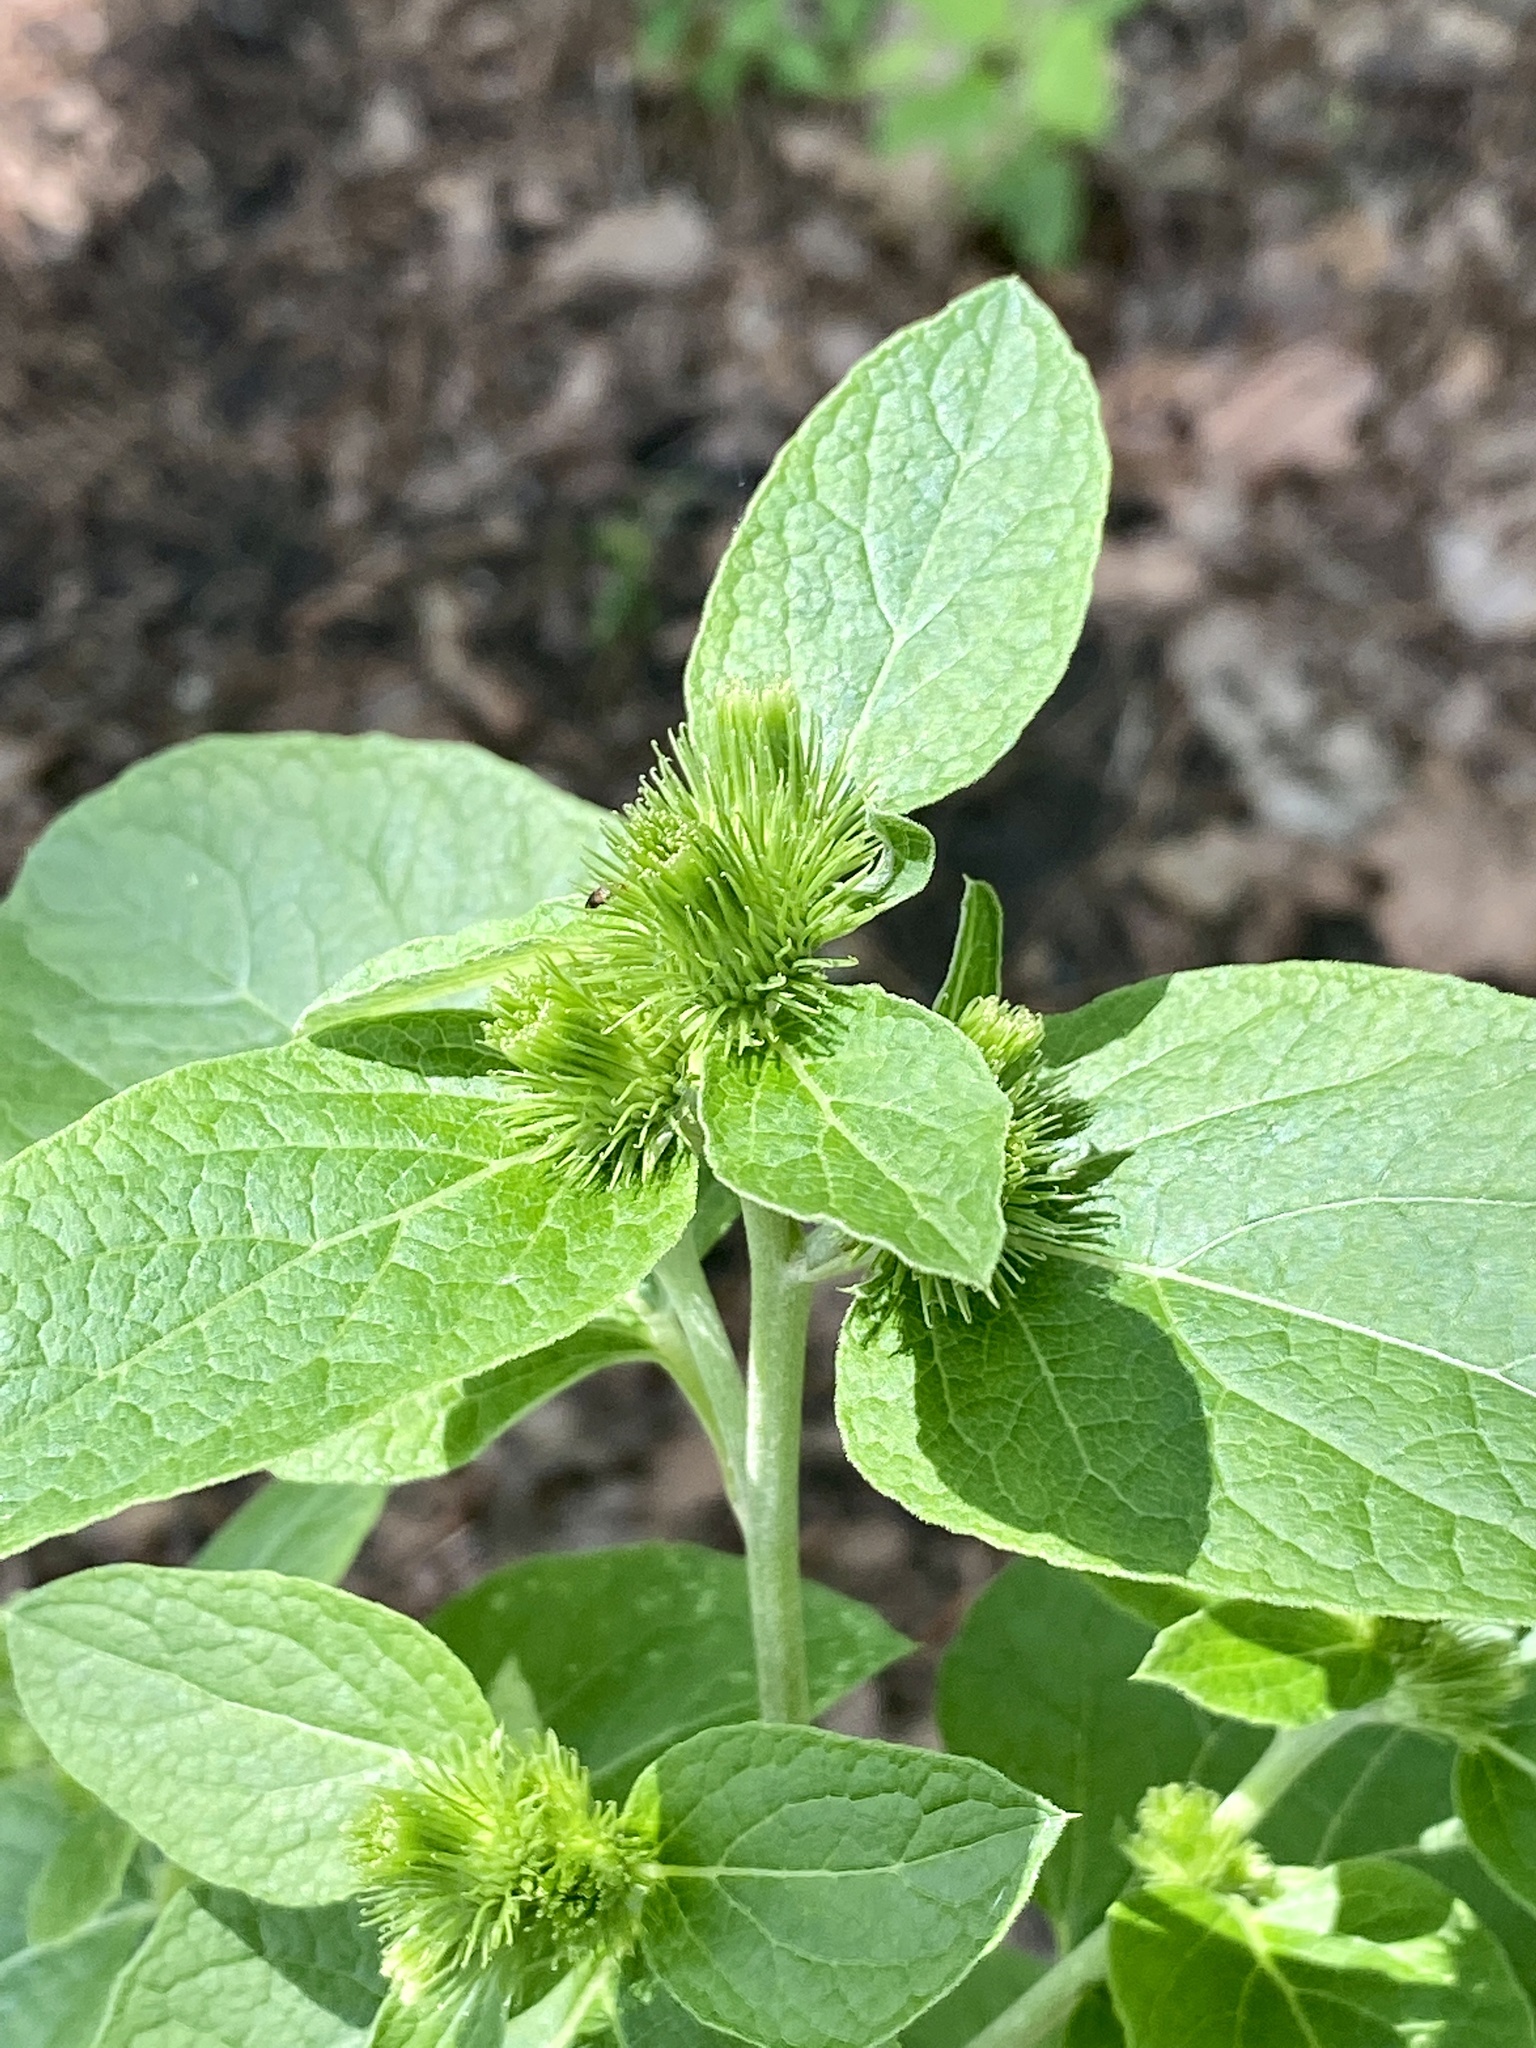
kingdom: Plantae
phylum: Tracheophyta
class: Magnoliopsida
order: Asterales
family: Asteraceae
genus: Arctium
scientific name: Arctium minus
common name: Lesser burdock
